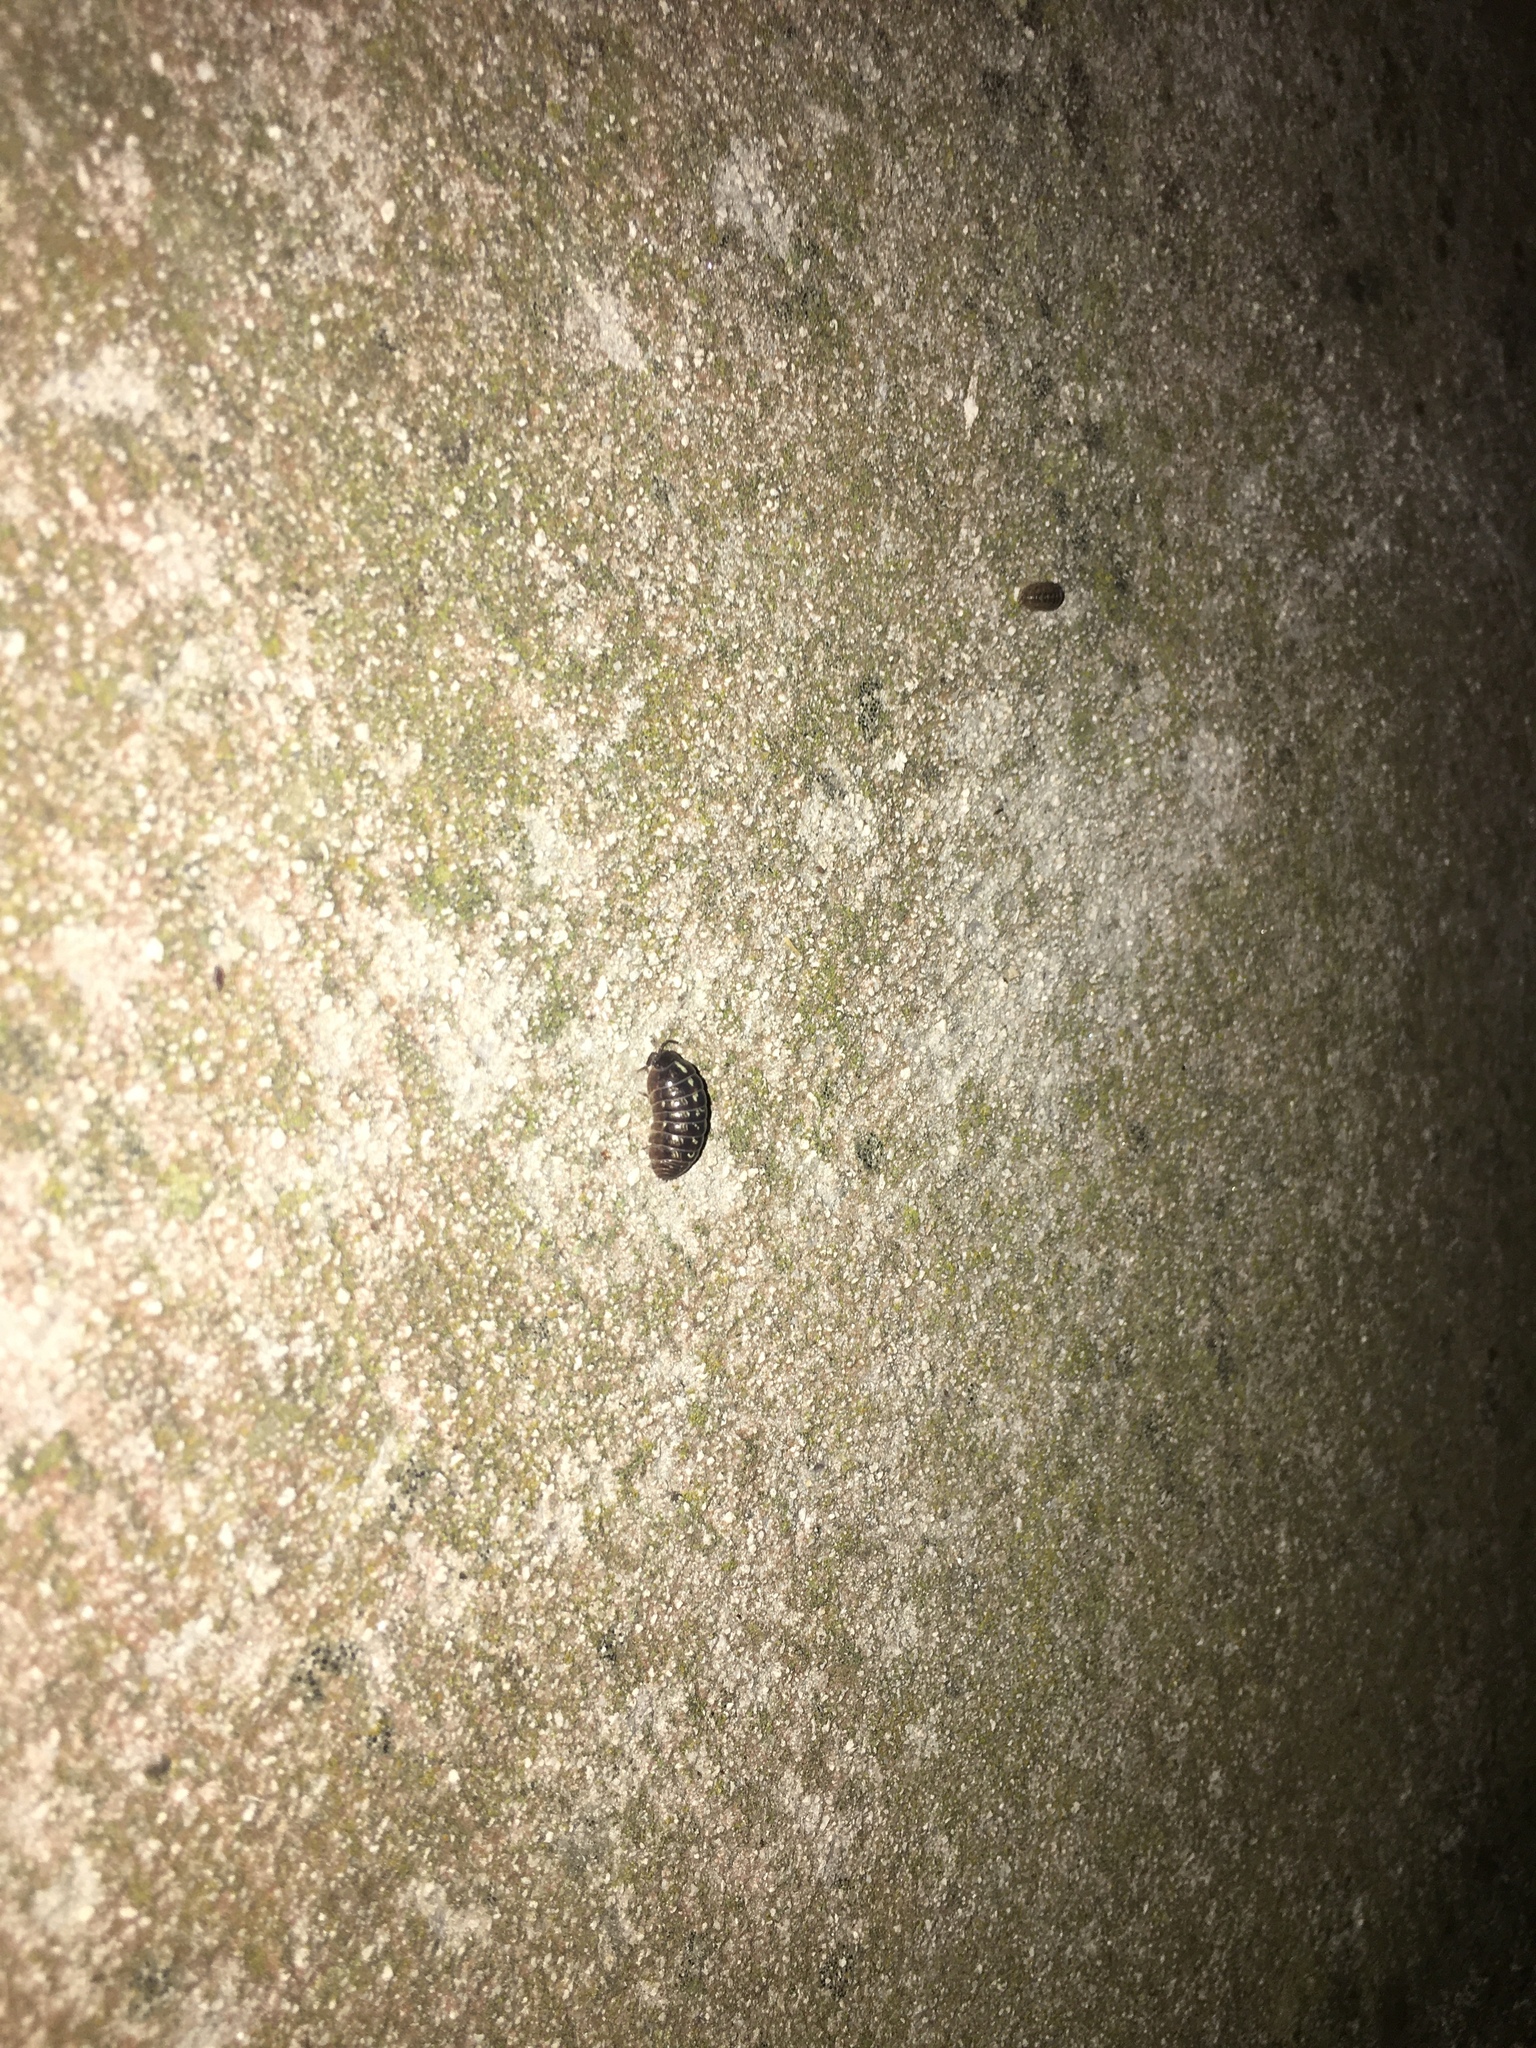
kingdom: Animalia
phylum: Arthropoda
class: Malacostraca
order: Isopoda
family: Armadillidiidae
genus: Armadillidium
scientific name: Armadillidium
